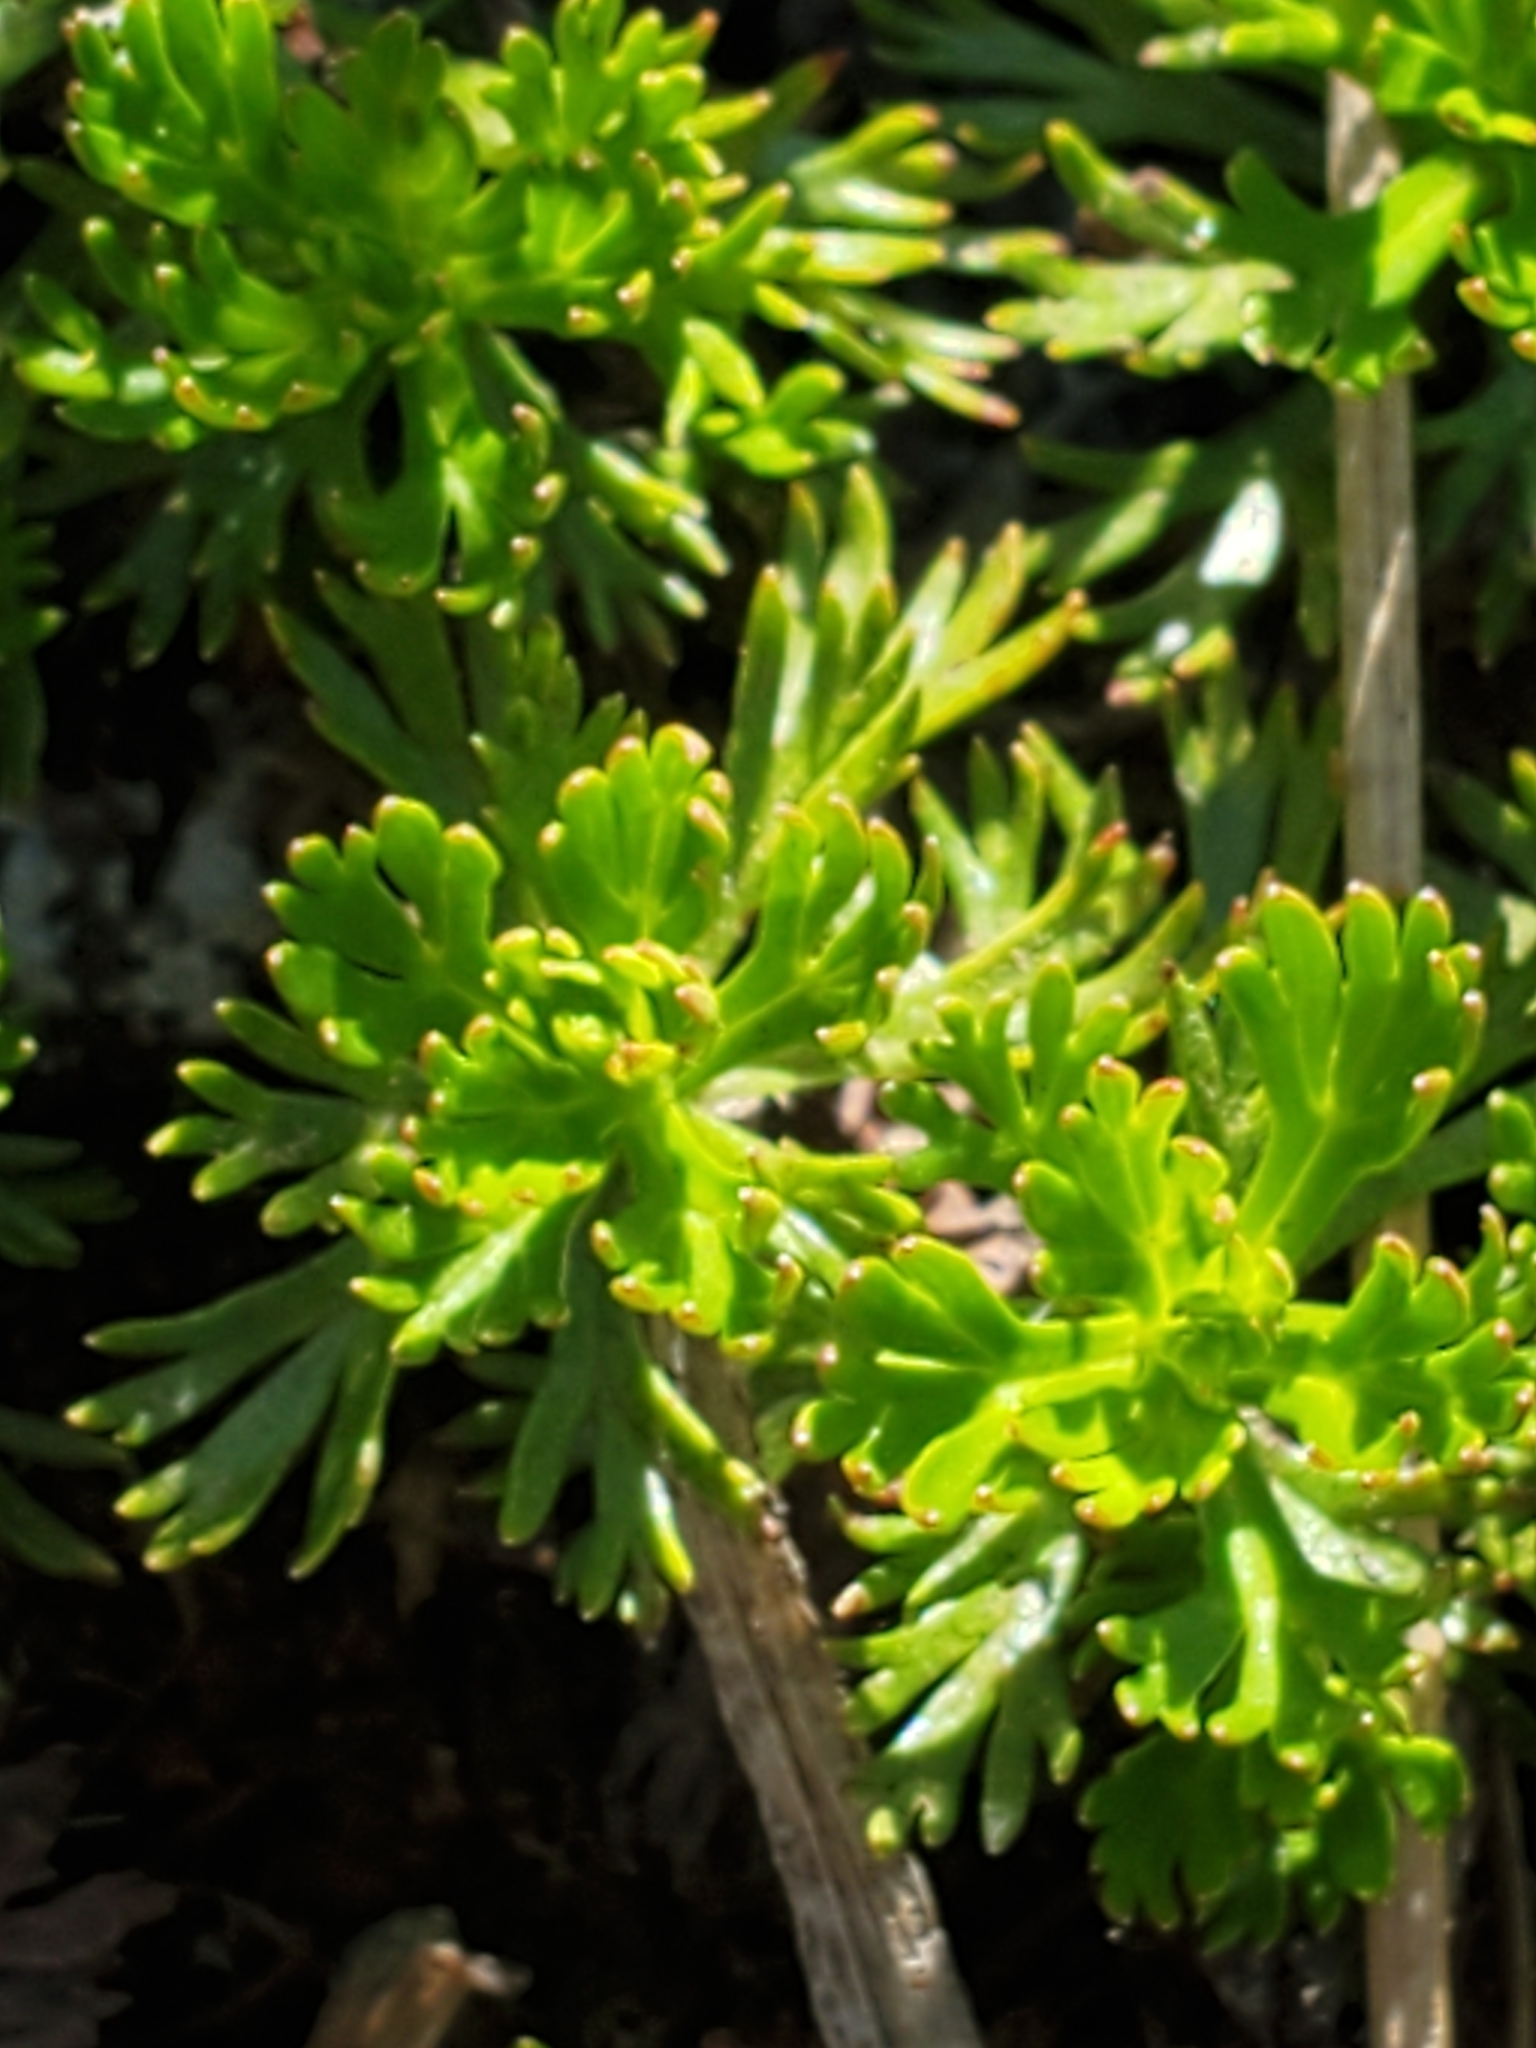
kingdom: Plantae
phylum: Tracheophyta
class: Magnoliopsida
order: Rosales
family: Rosaceae
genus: Luetkea
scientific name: Luetkea pectinata
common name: Partridgefoot
